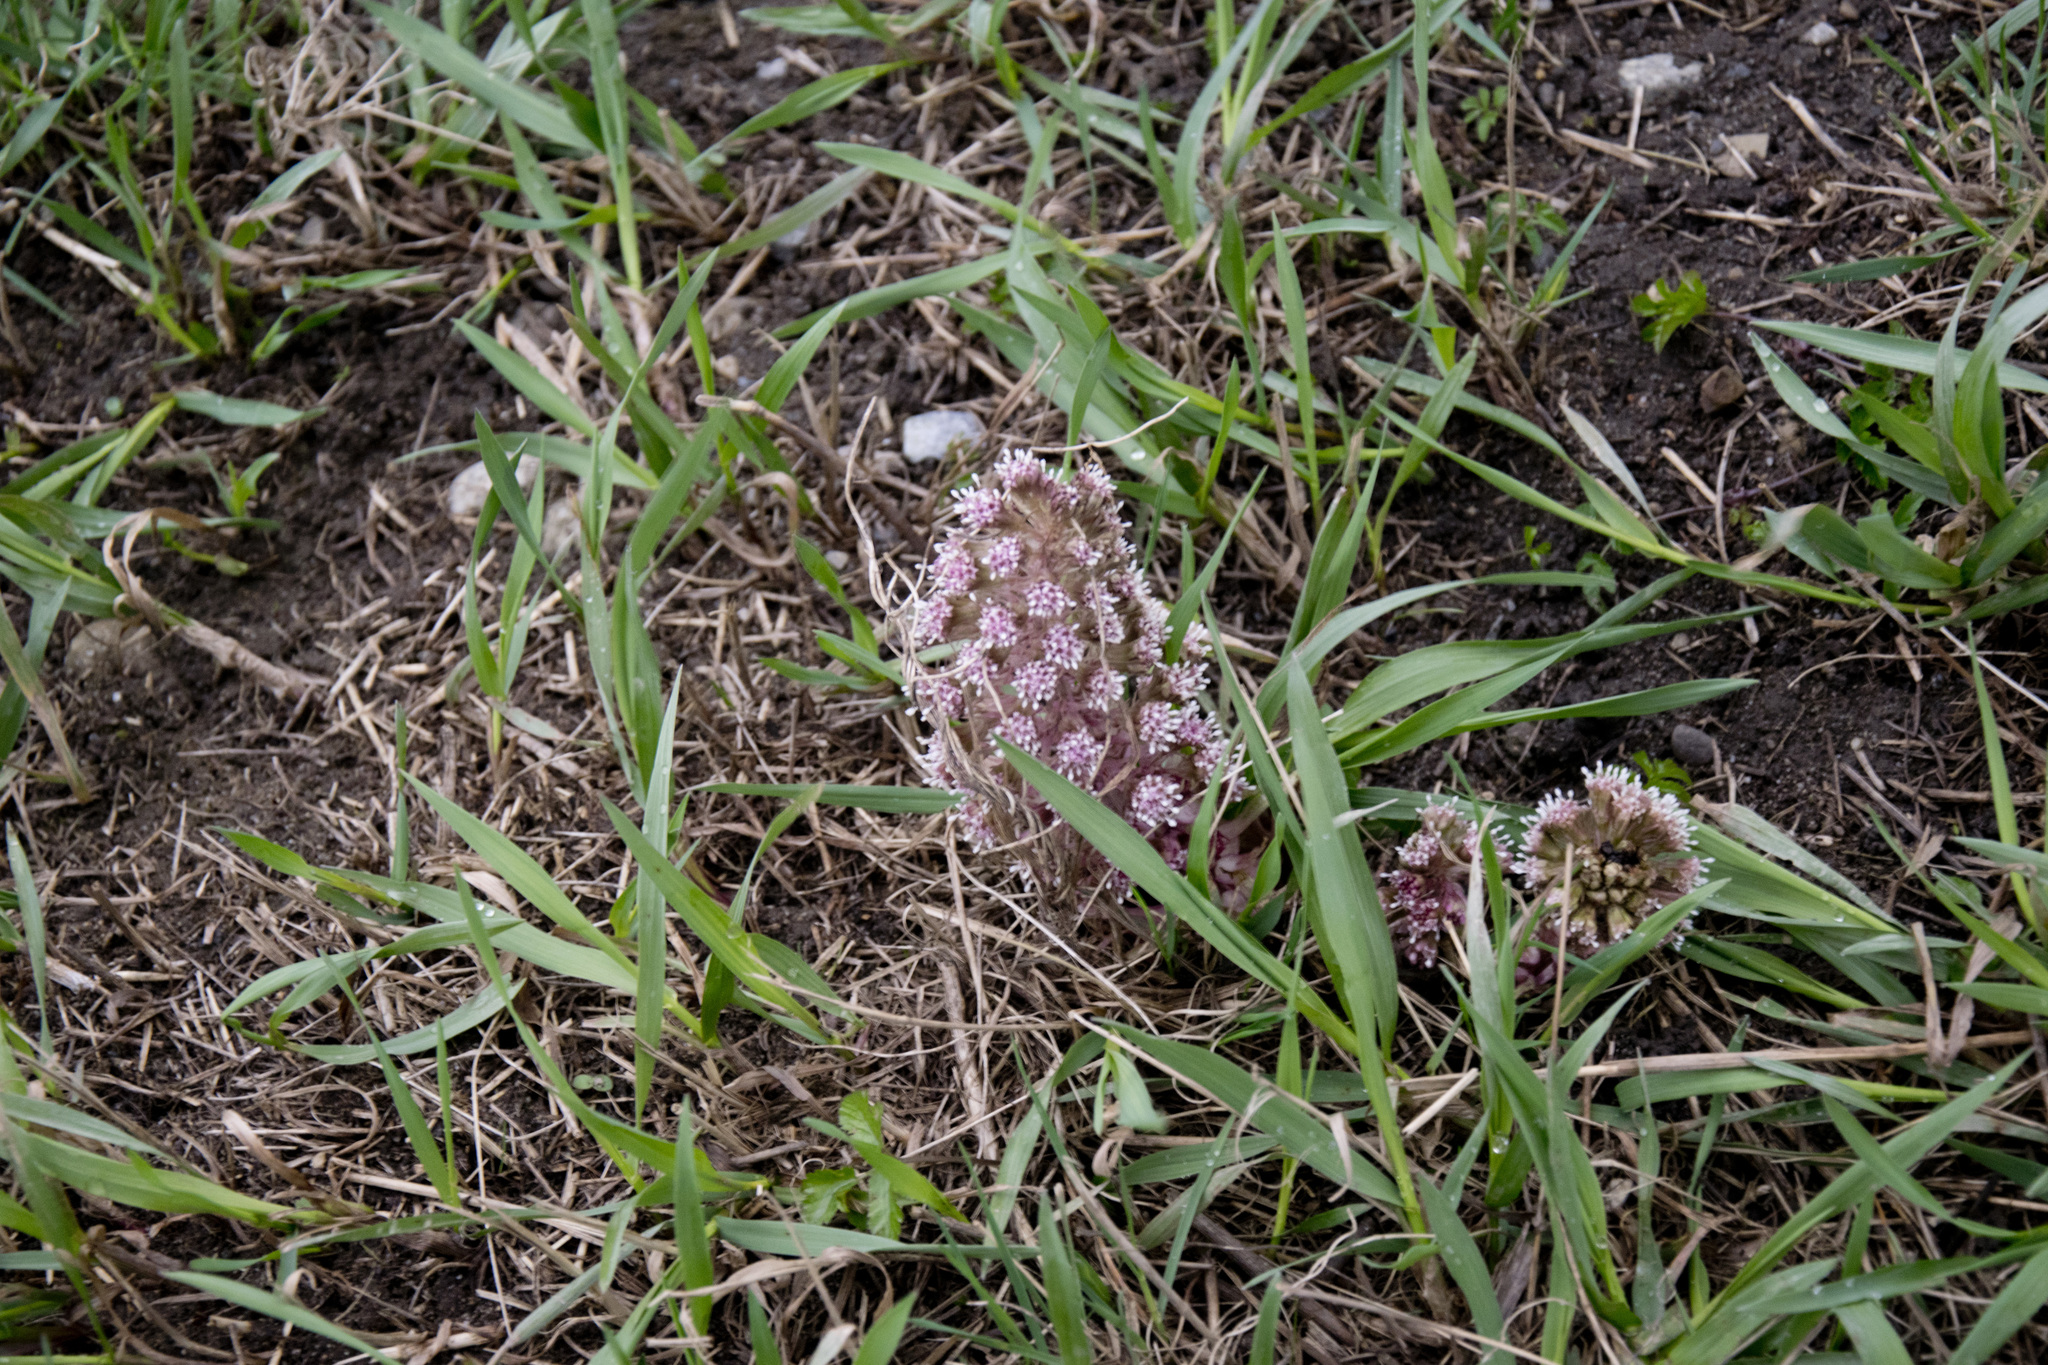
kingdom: Plantae
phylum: Tracheophyta
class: Magnoliopsida
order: Asterales
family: Asteraceae
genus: Petasites
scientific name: Petasites hybridus
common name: Butterbur
